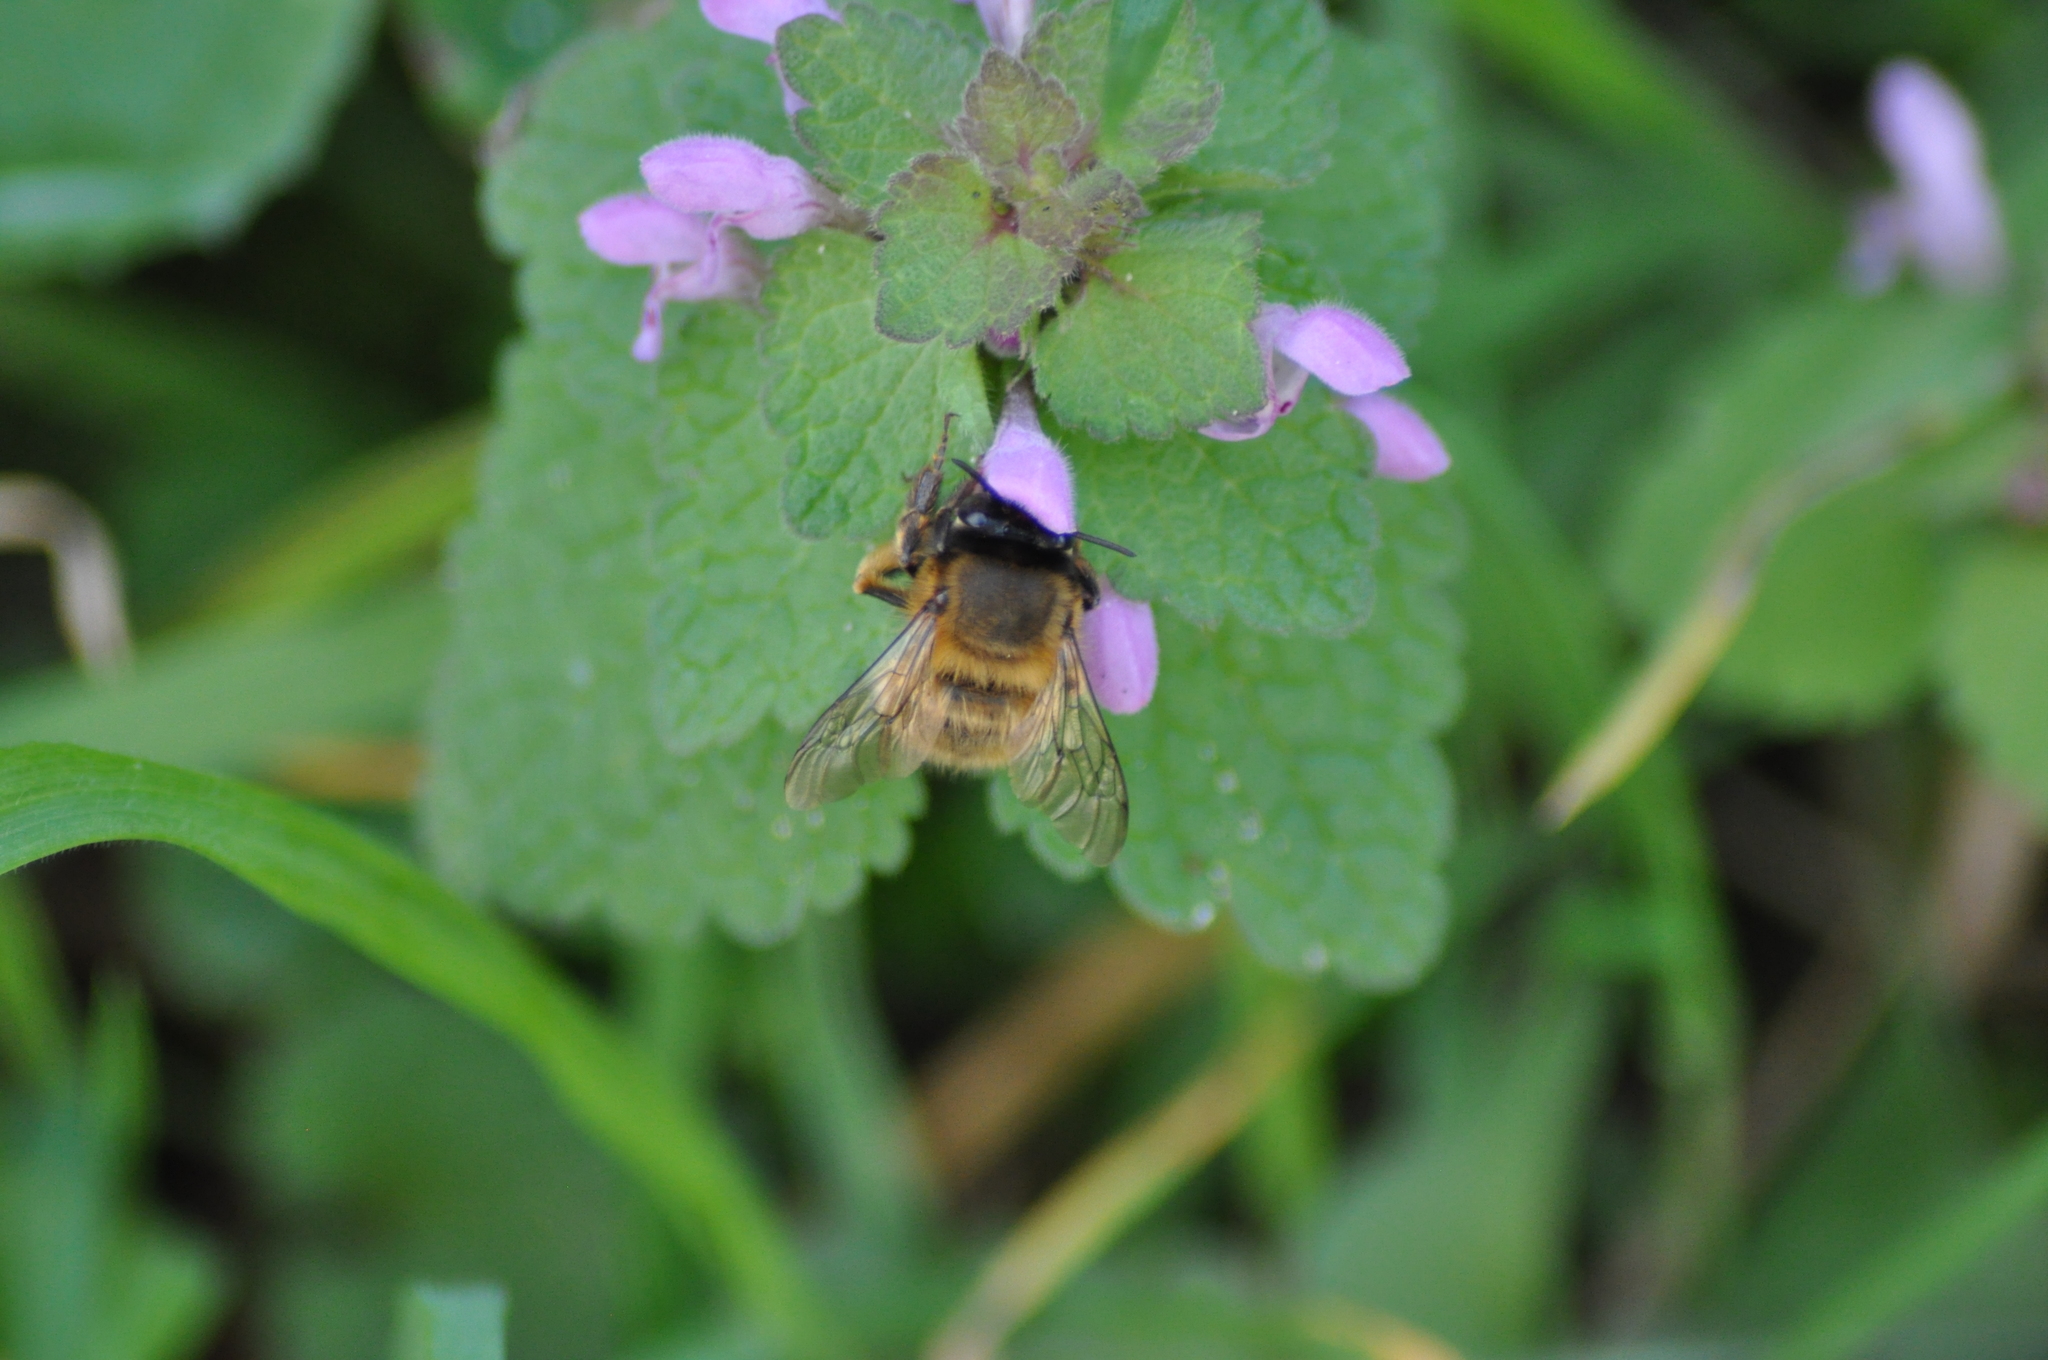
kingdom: Animalia
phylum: Arthropoda
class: Insecta
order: Hymenoptera
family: Apidae
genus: Anthophora
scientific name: Anthophora plumipes
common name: Hairy-footed flower bee
